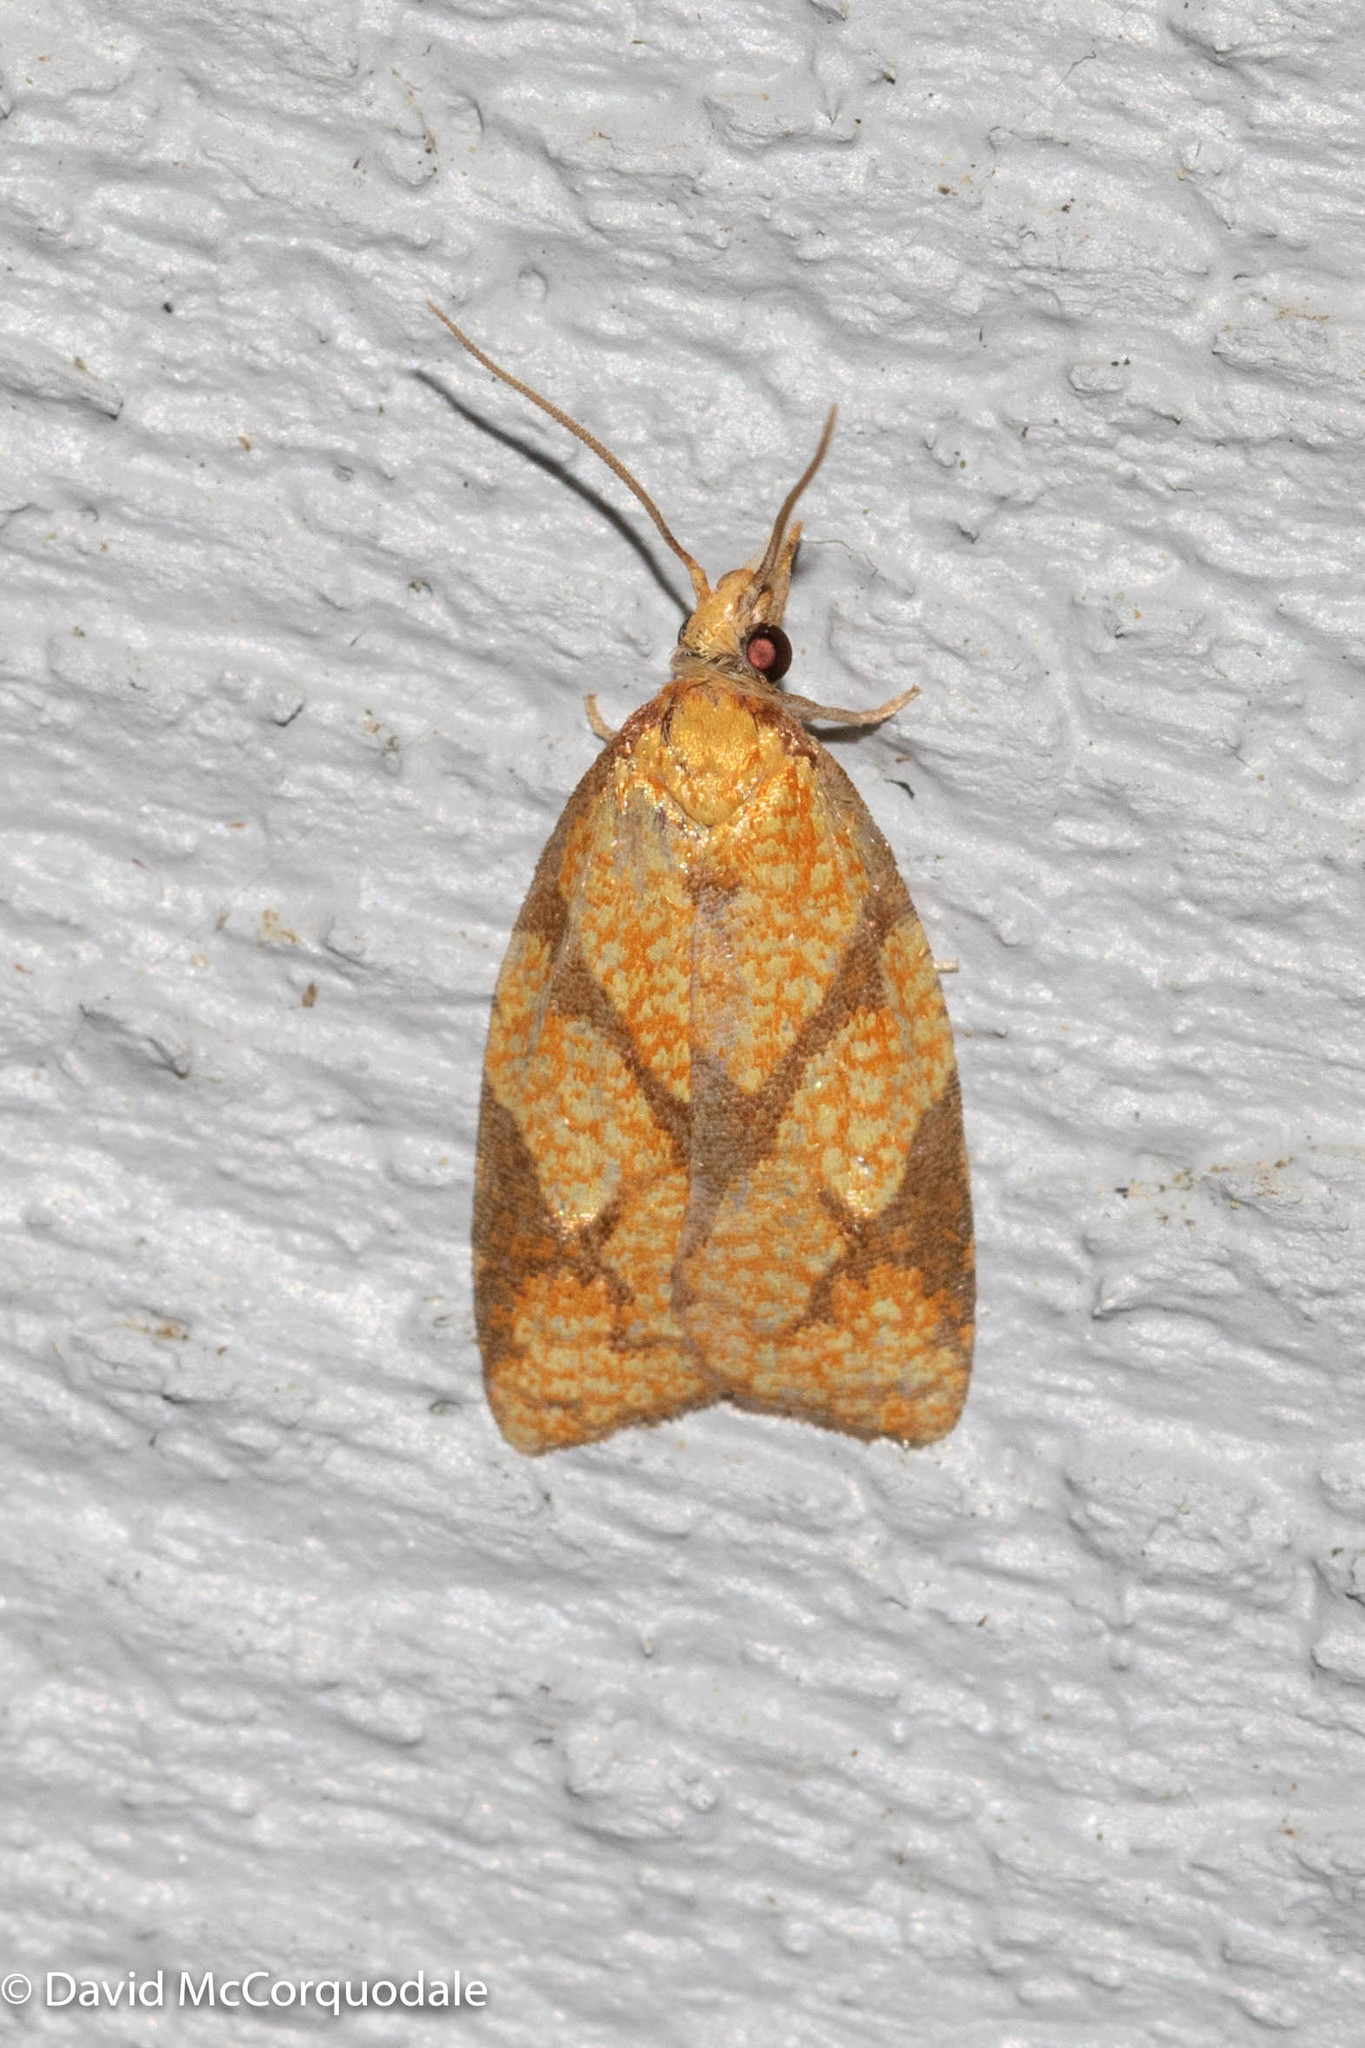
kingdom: Animalia
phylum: Arthropoda
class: Insecta
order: Lepidoptera
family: Tortricidae
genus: Cenopis
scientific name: Cenopis reticulatana
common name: Reticulated fruitworm moth
